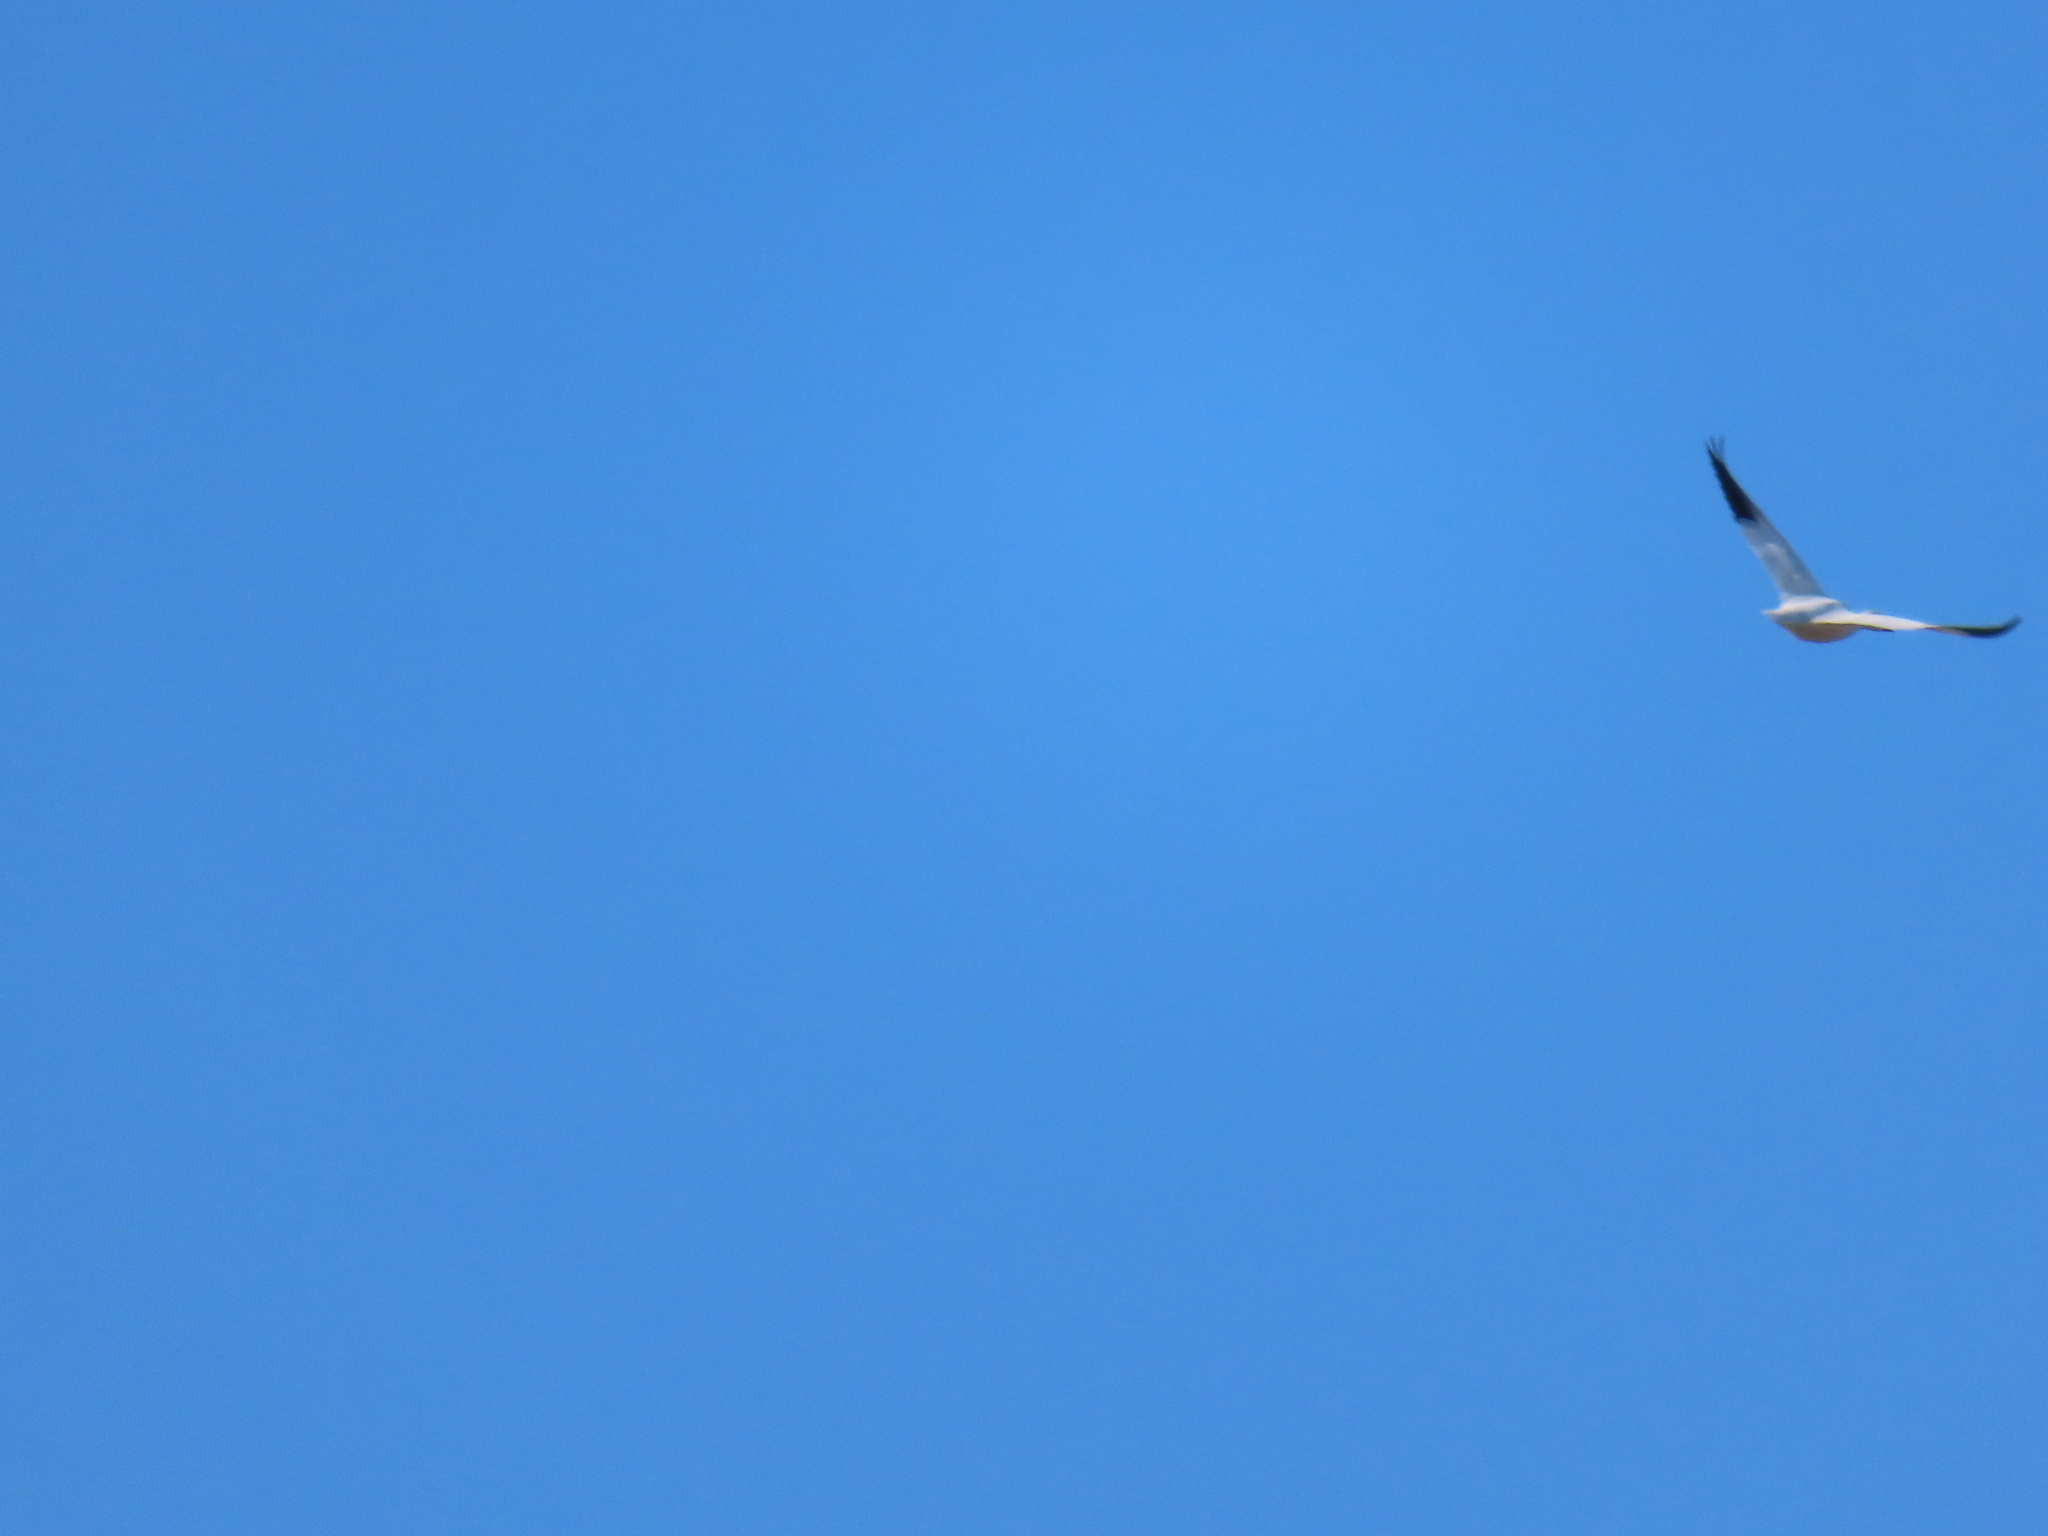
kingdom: Animalia
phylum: Chordata
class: Aves
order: Anseriformes
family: Anatidae
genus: Anser
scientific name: Anser caerulescens
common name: Snow goose
